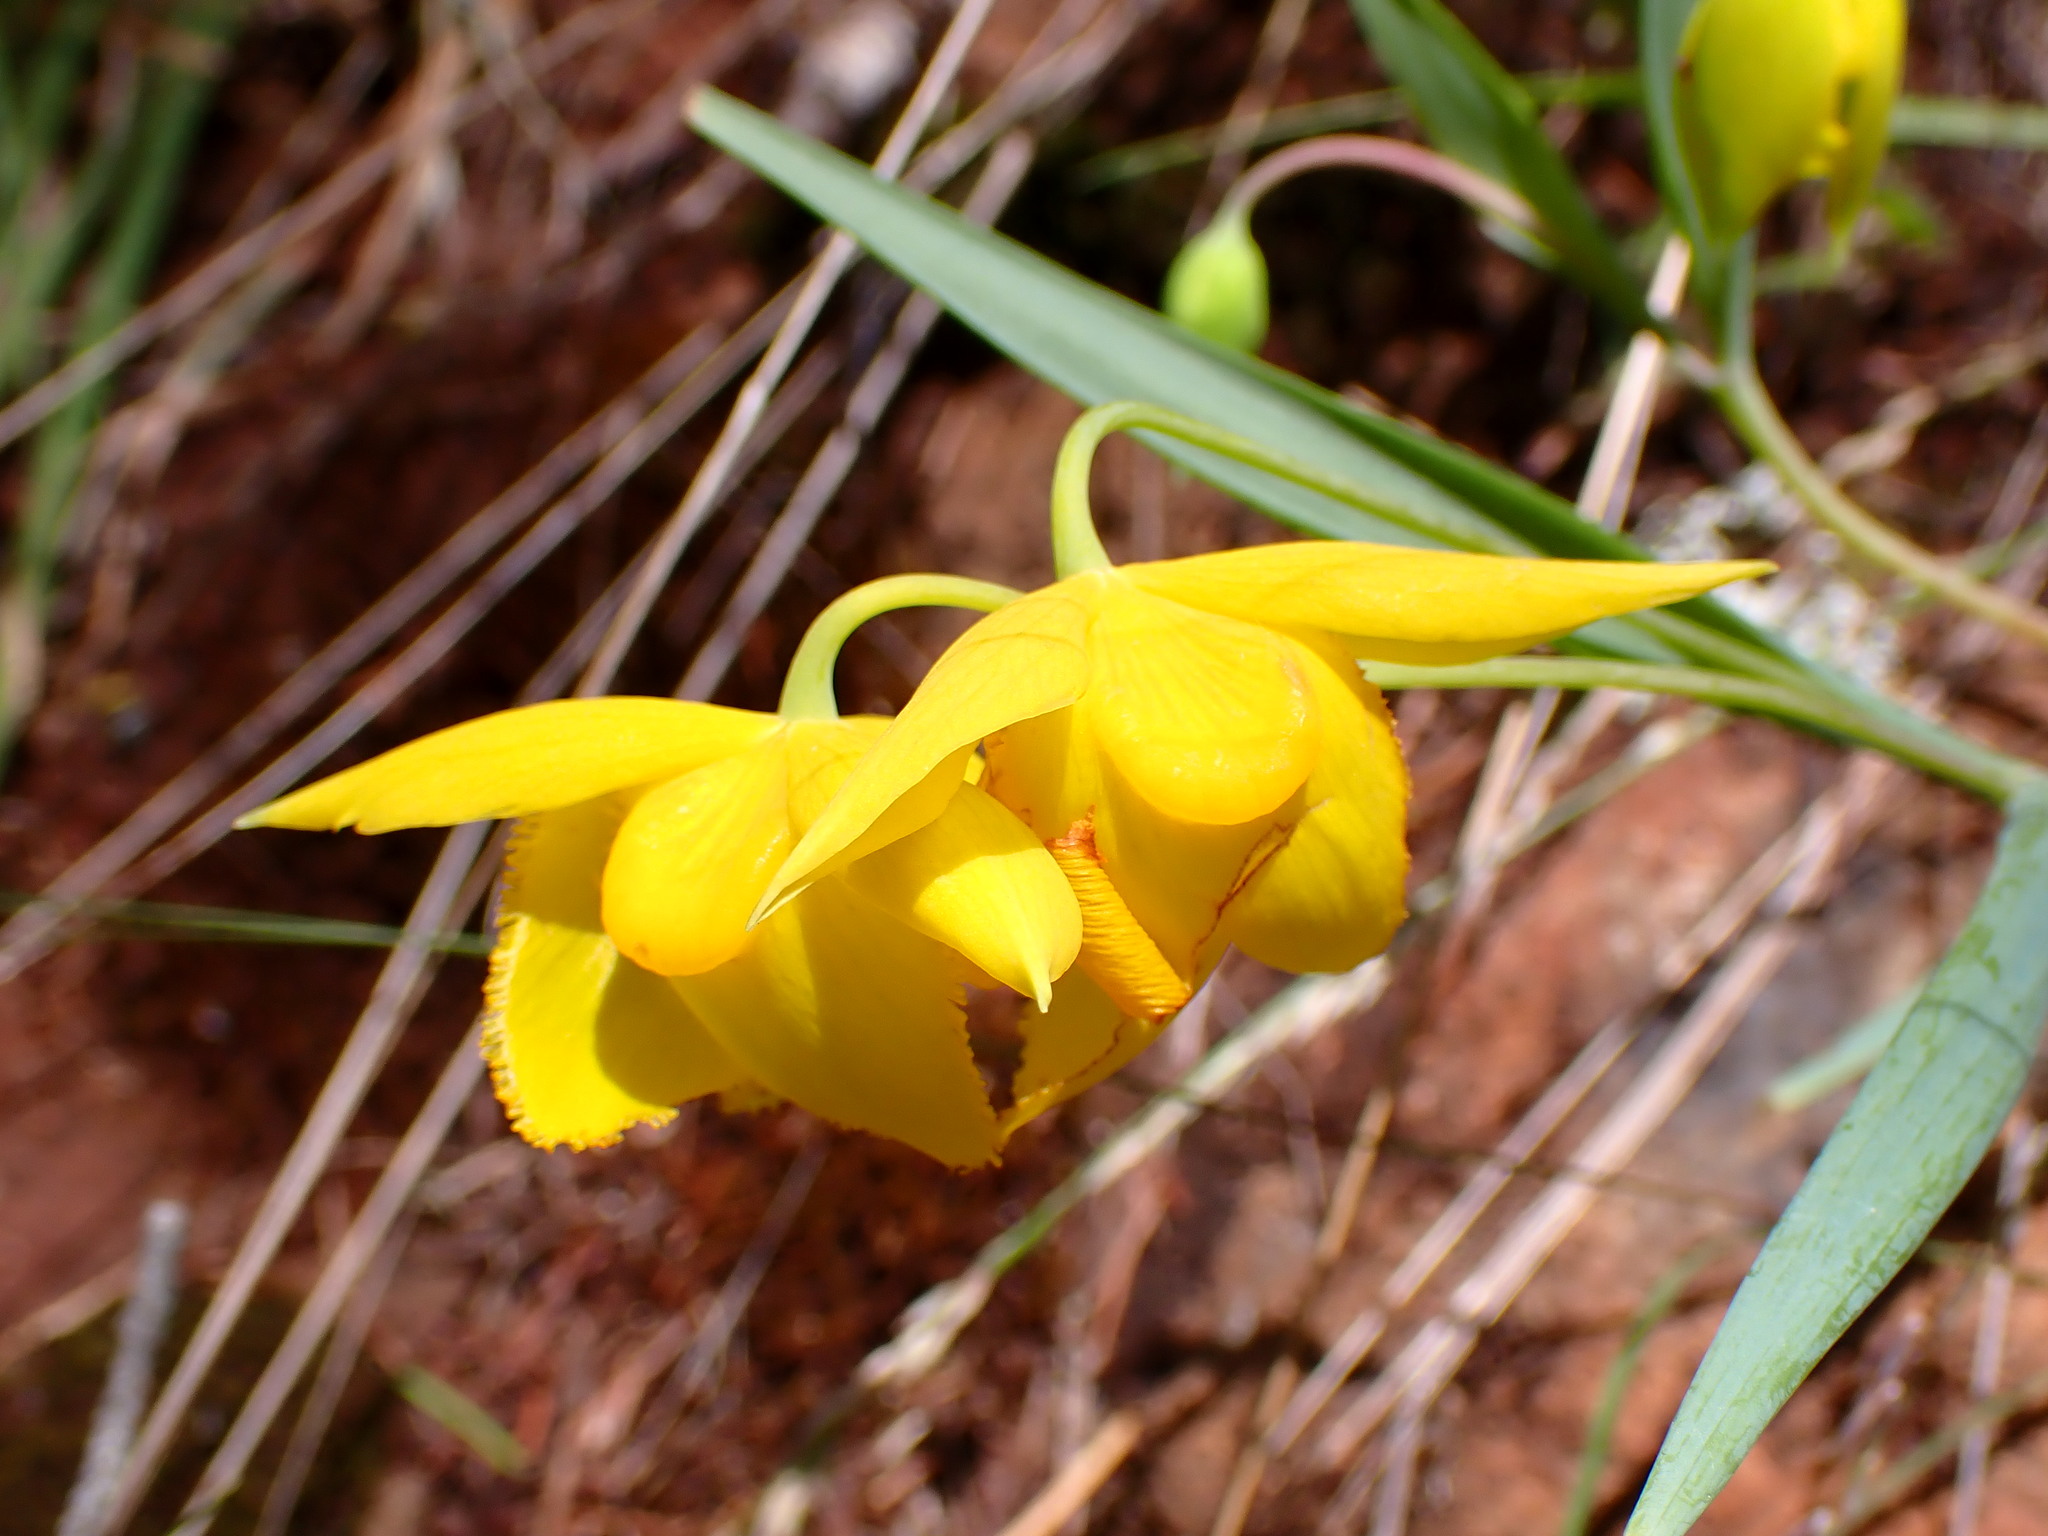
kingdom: Plantae
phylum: Tracheophyta
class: Liliopsida
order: Liliales
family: Liliaceae
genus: Calochortus
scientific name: Calochortus amabilis
